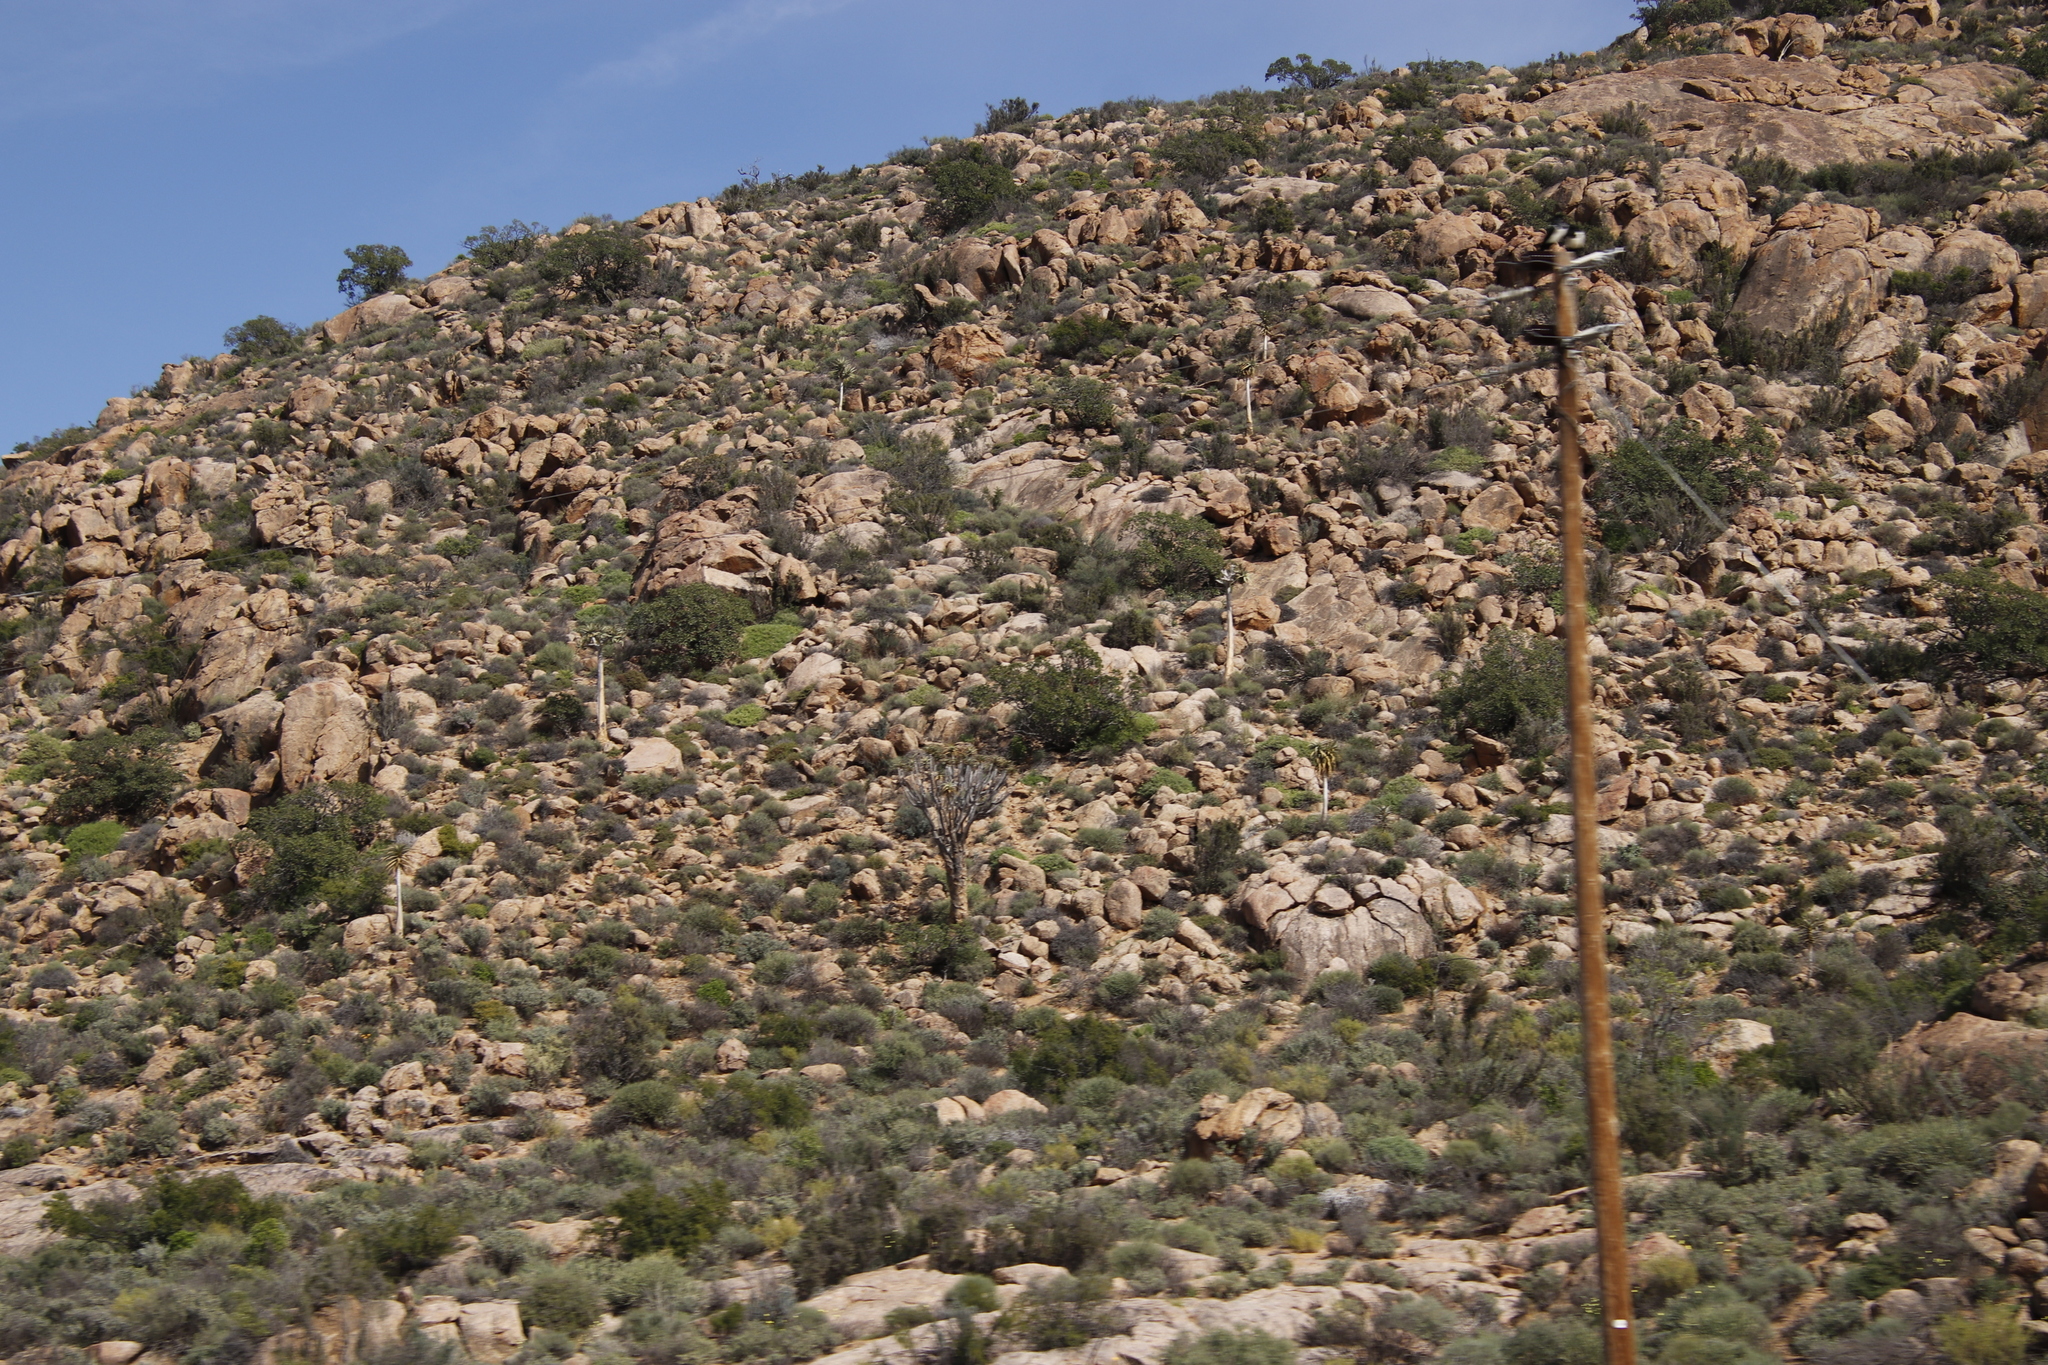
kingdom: Plantae
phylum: Tracheophyta
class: Liliopsida
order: Asparagales
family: Asphodelaceae
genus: Aloidendron
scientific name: Aloidendron dichotomum
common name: Quiver tree
